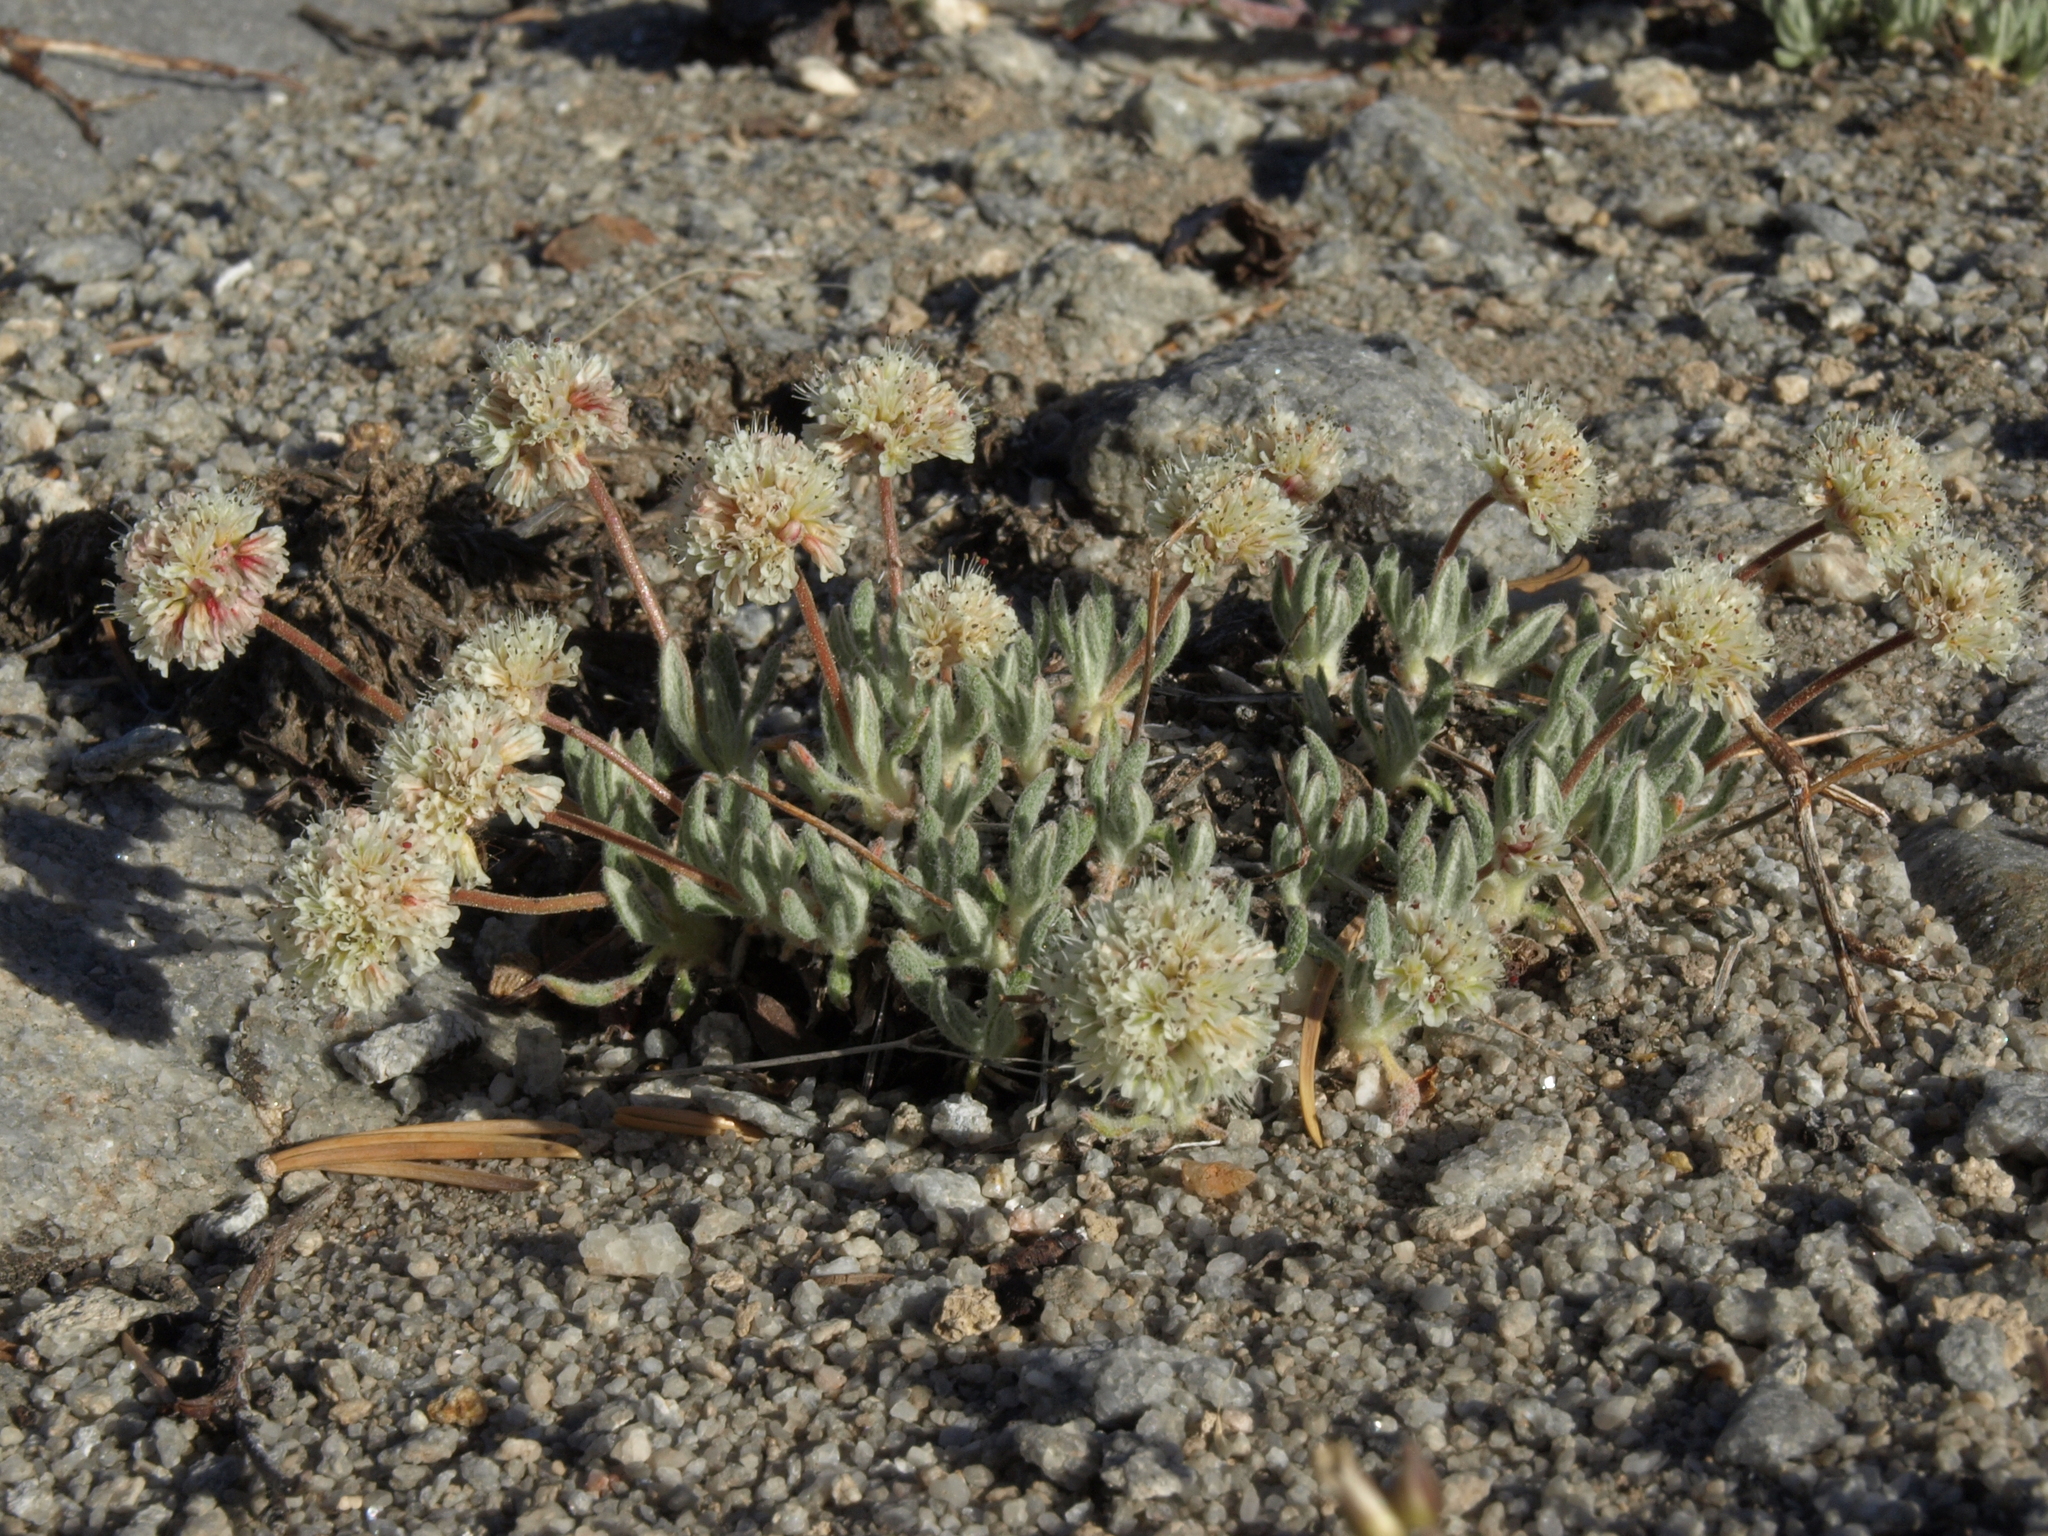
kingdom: Plantae
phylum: Tracheophyta
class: Magnoliopsida
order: Caryophyllales
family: Polygonaceae
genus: Eriogonum
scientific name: Eriogonum gracilipes
